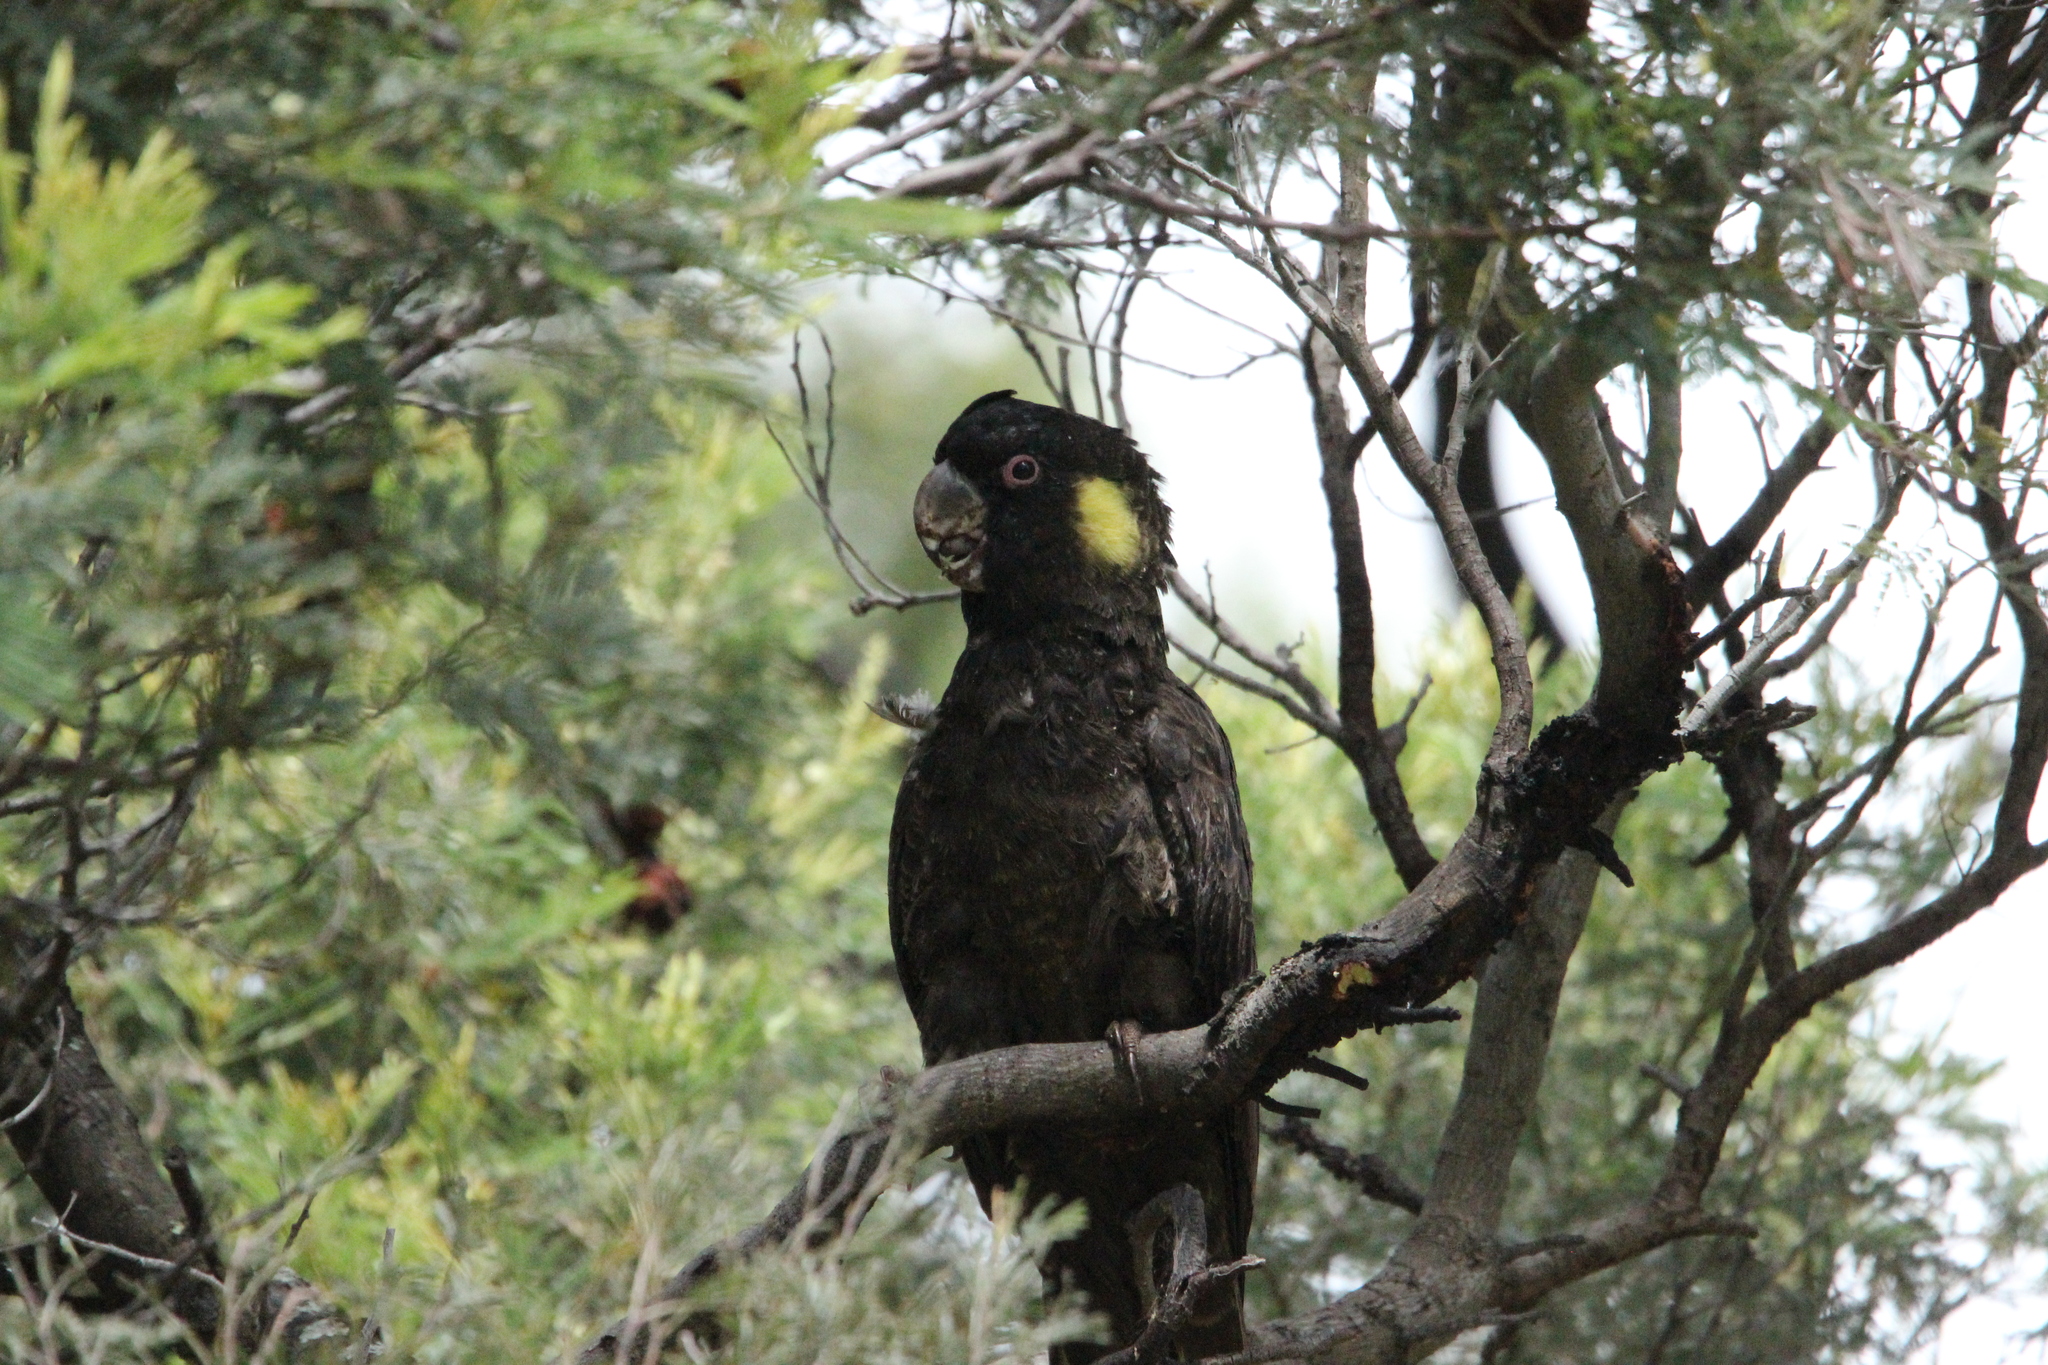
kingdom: Animalia
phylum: Chordata
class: Aves
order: Psittaciformes
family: Cacatuidae
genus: Zanda
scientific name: Zanda funerea
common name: Yellow-tailed black-cockatoo
